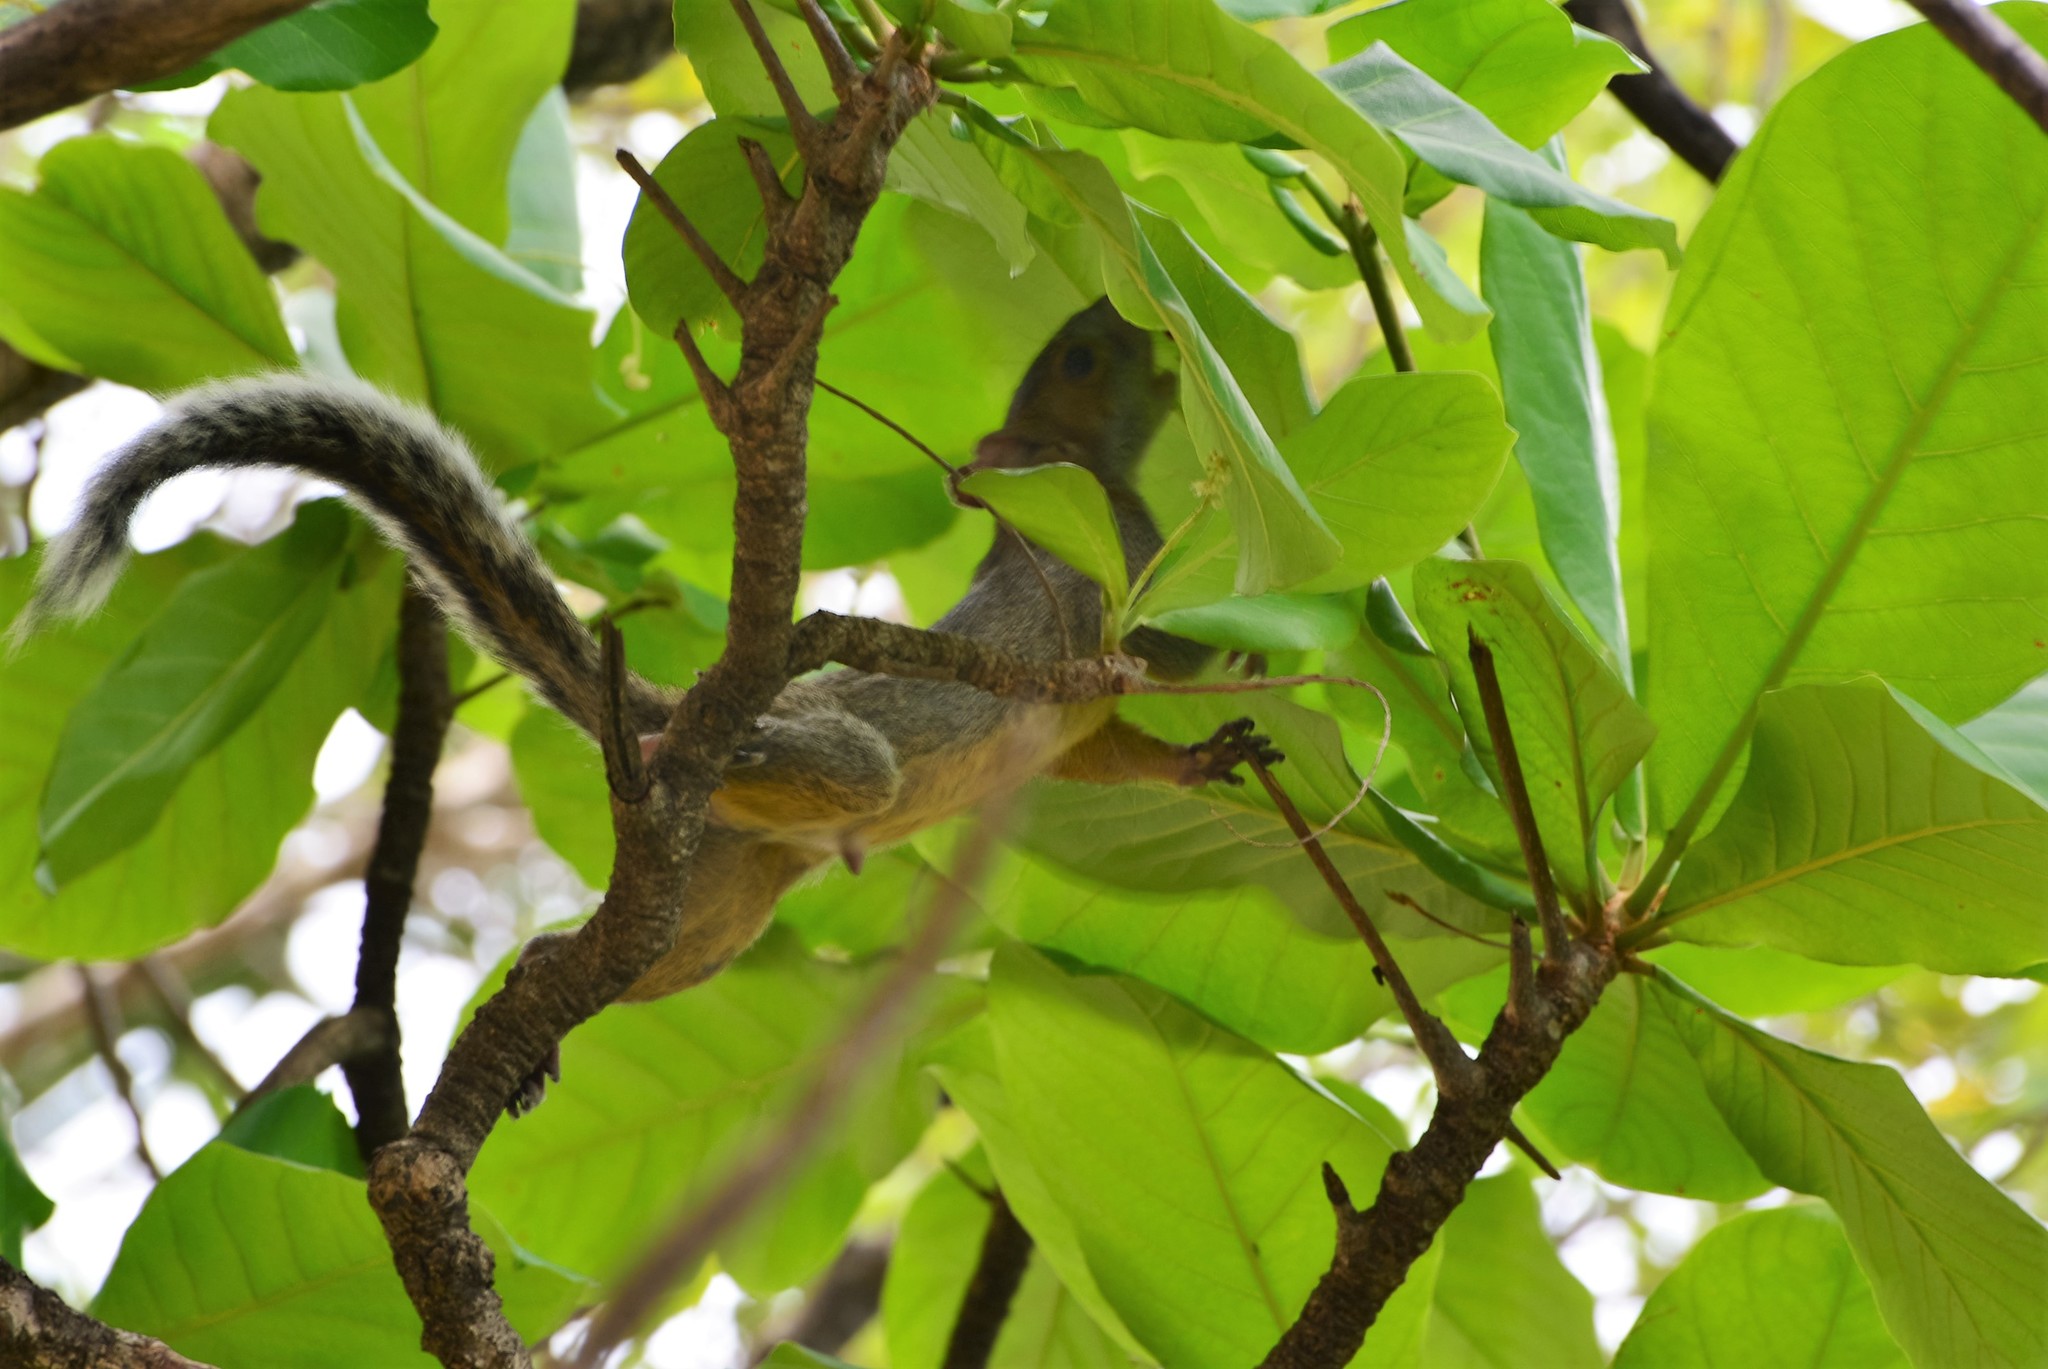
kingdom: Animalia
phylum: Chordata
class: Mammalia
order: Rodentia
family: Sciuridae
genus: Sciurus
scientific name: Sciurus aureogaster
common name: Red-bellied squirrel
